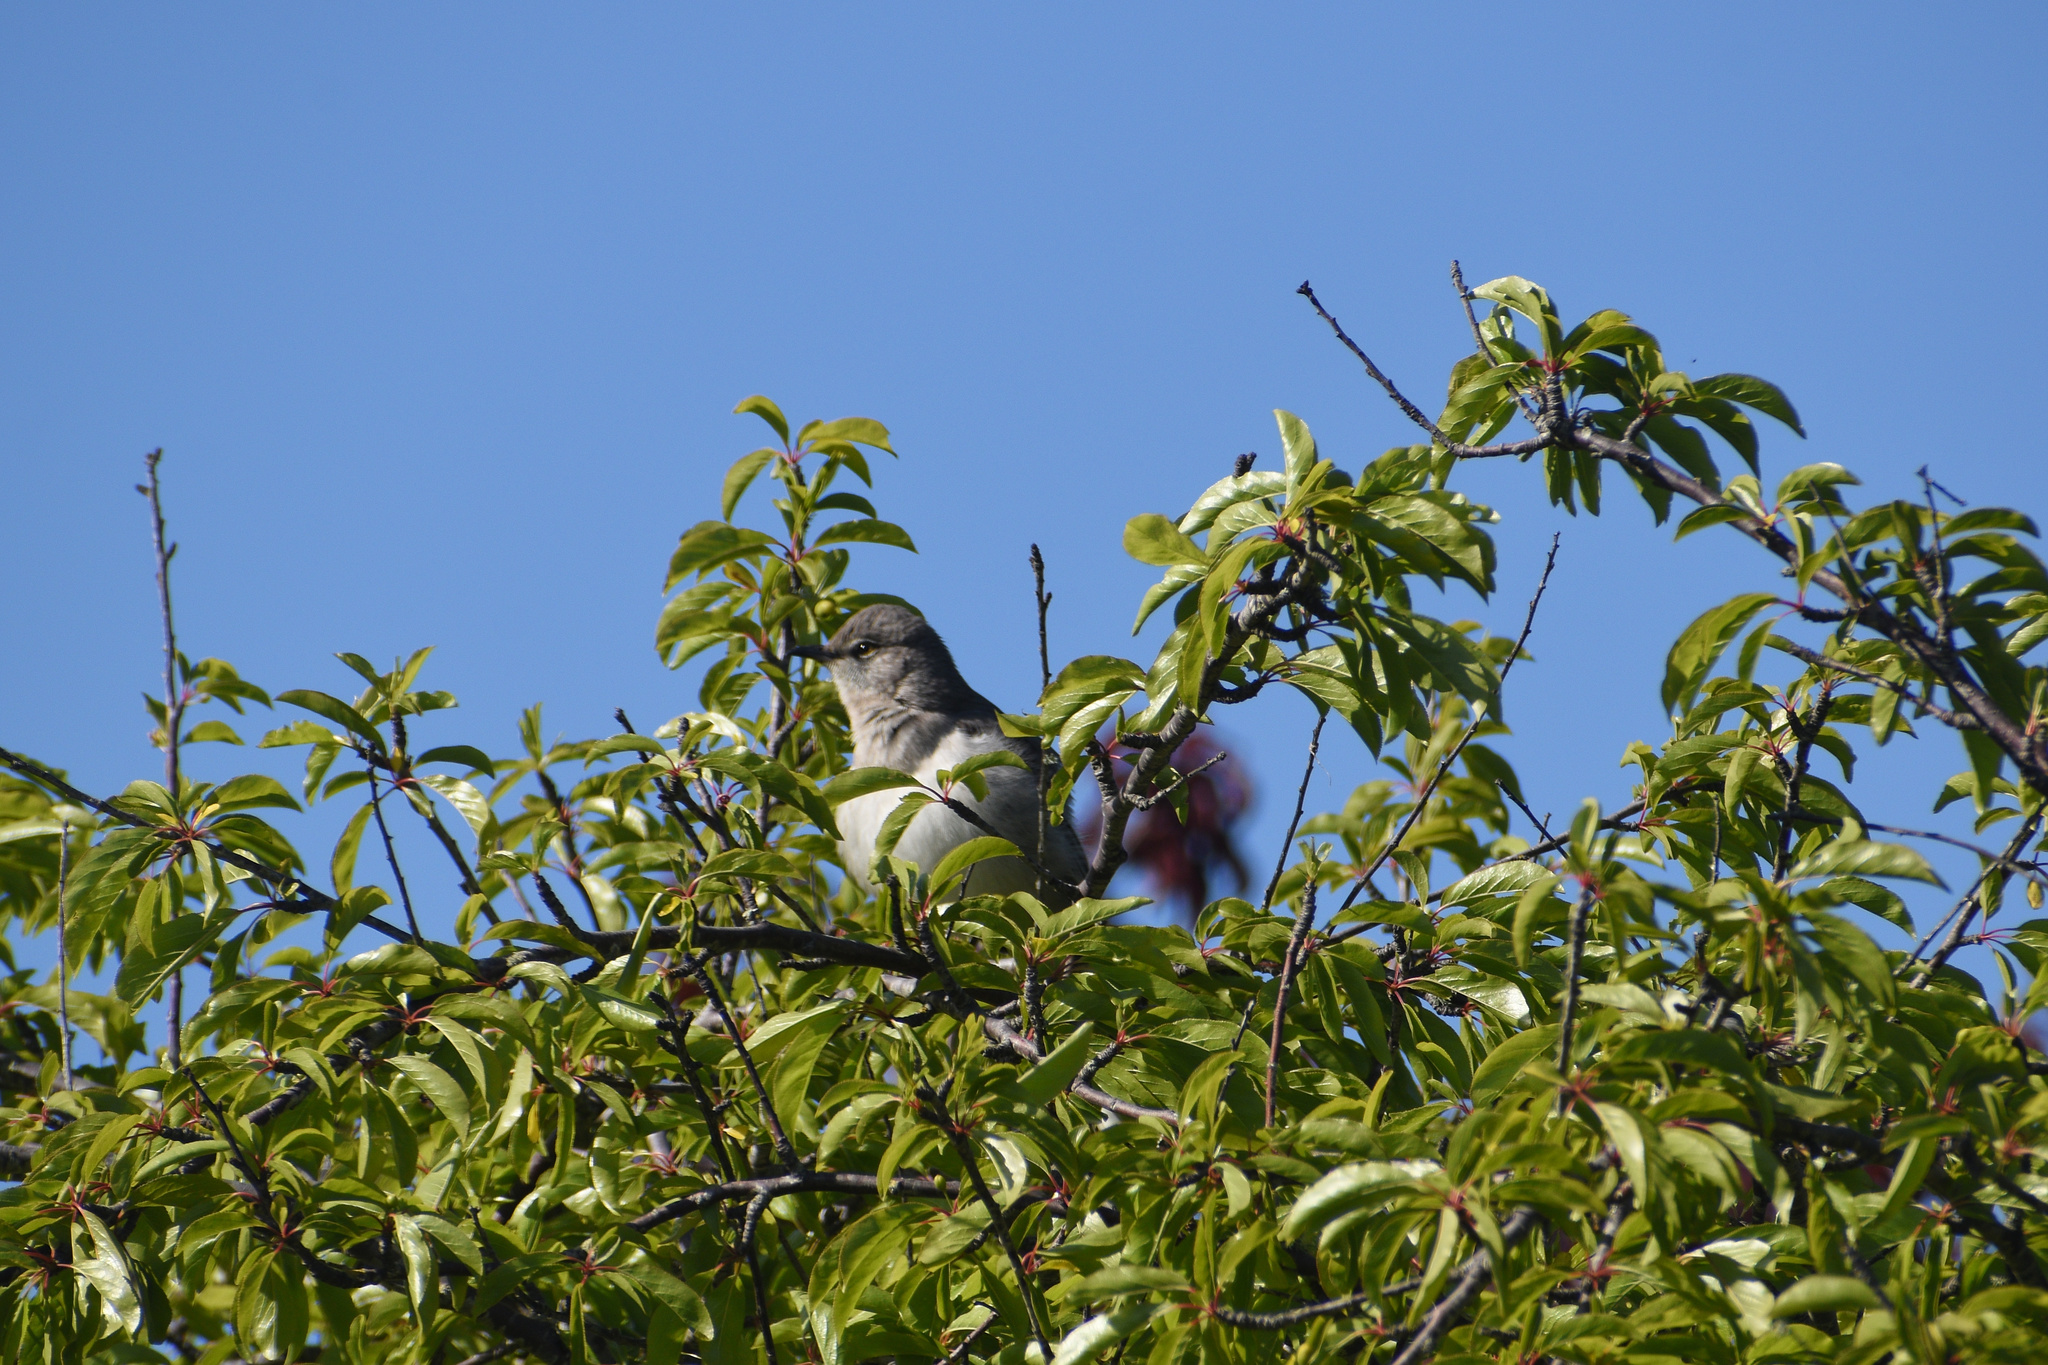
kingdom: Animalia
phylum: Chordata
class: Aves
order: Passeriformes
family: Mimidae
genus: Mimus
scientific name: Mimus polyglottos
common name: Northern mockingbird
